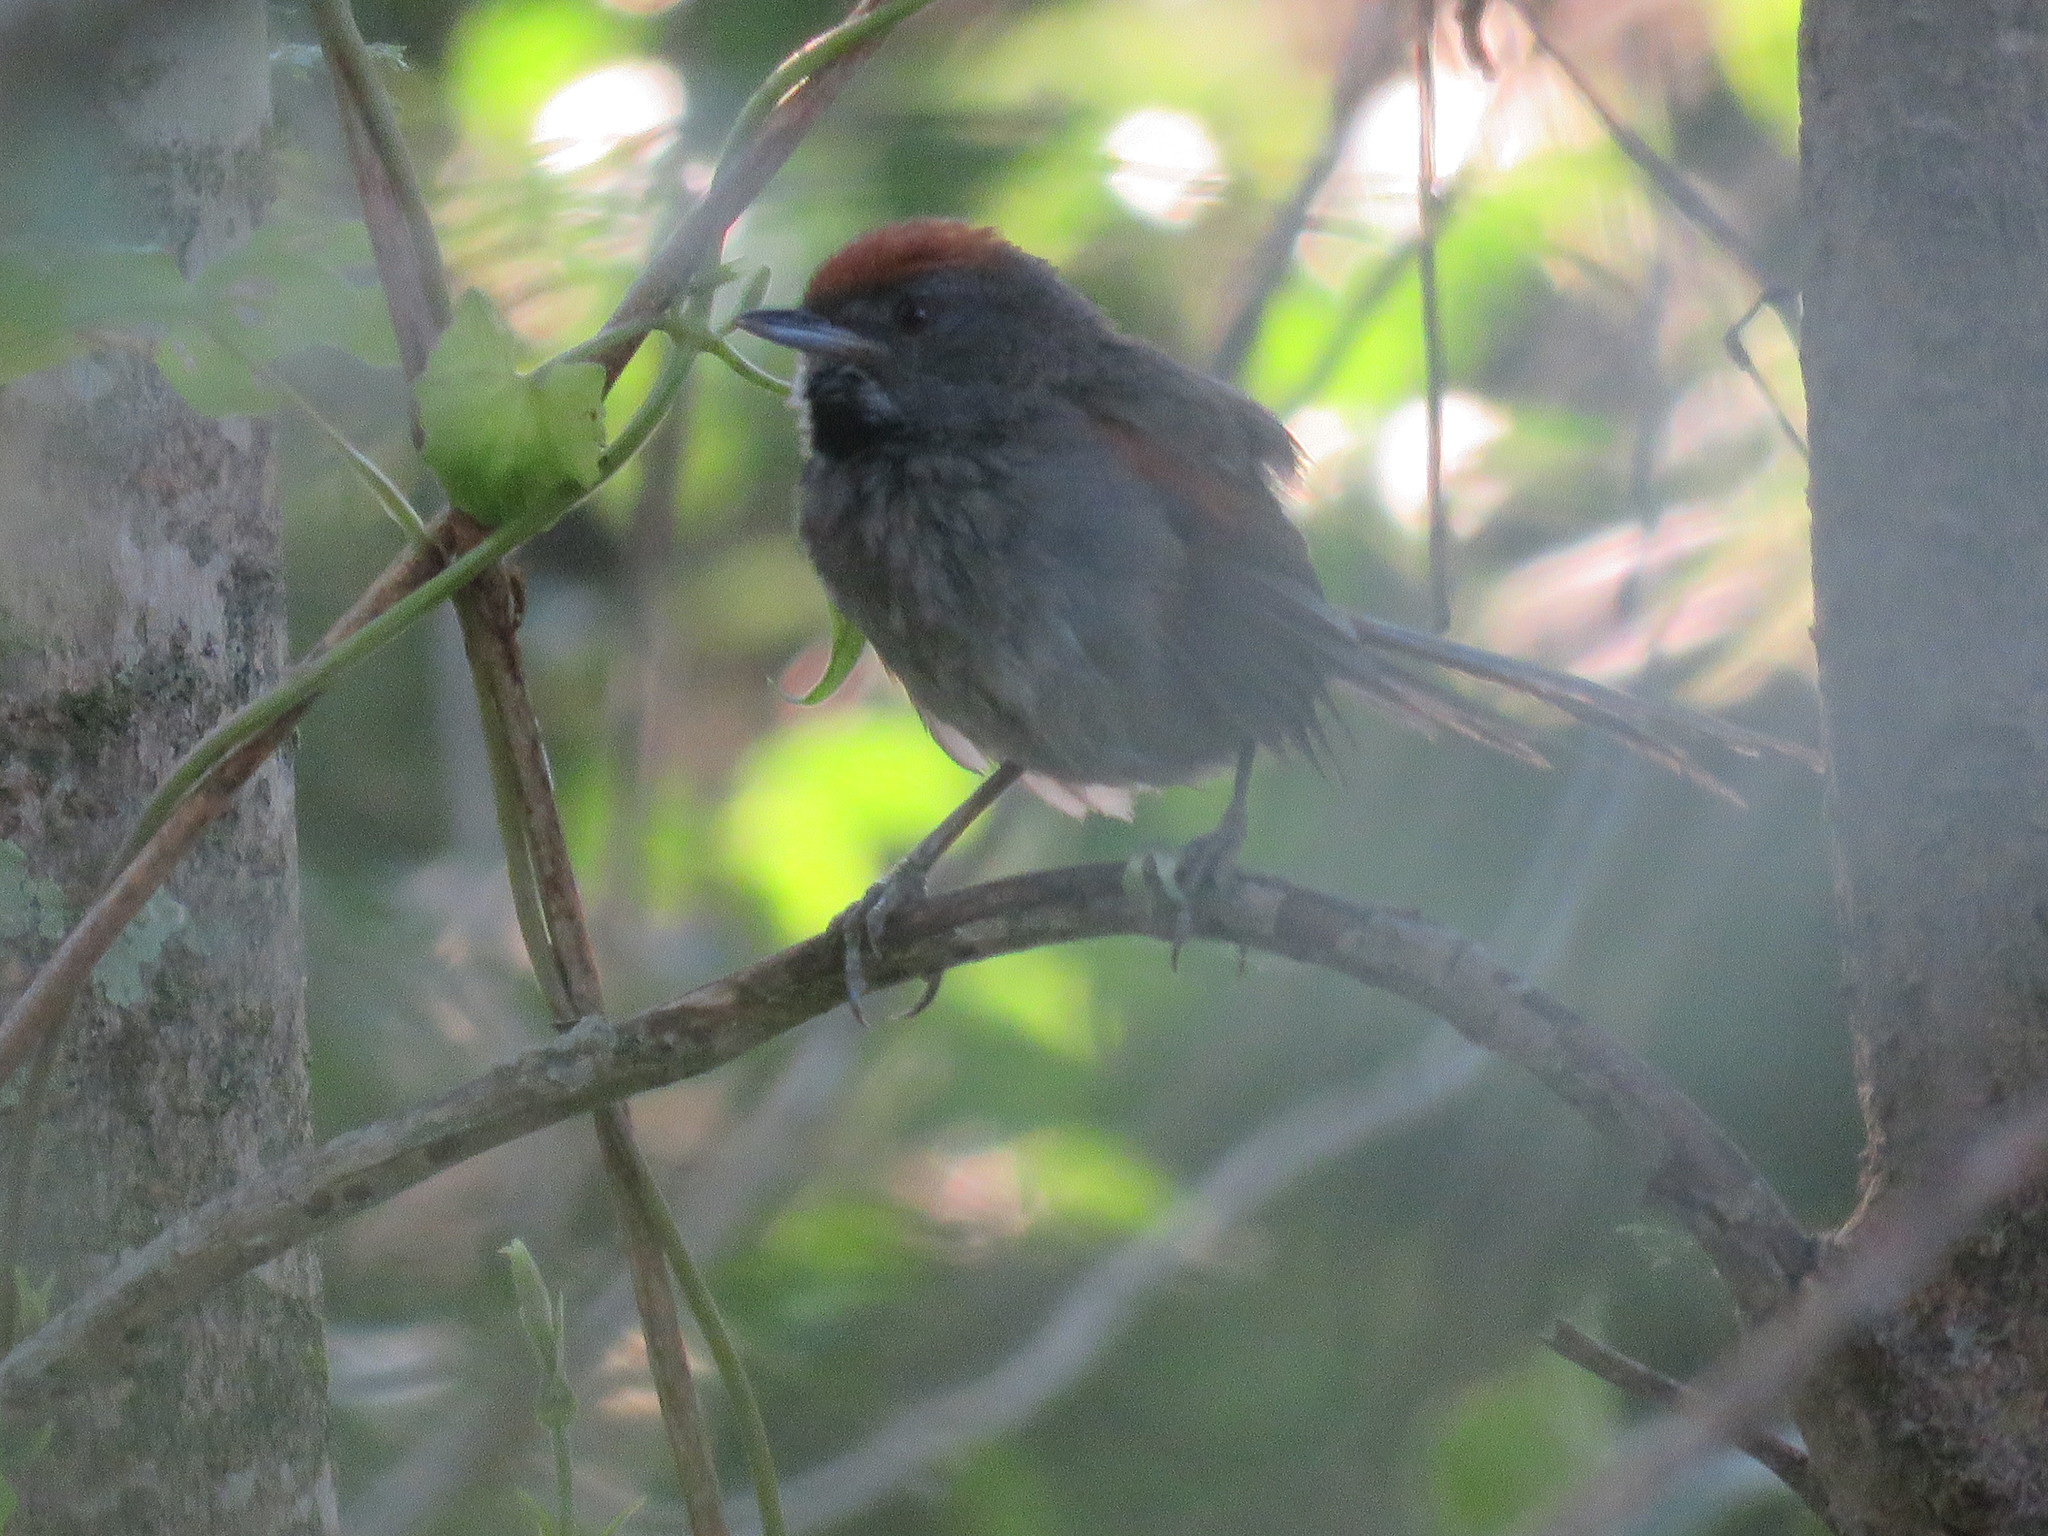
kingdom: Animalia
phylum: Chordata
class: Aves
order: Passeriformes
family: Furnariidae
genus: Synallaxis
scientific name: Synallaxis spixi
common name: Spix's spinetail
